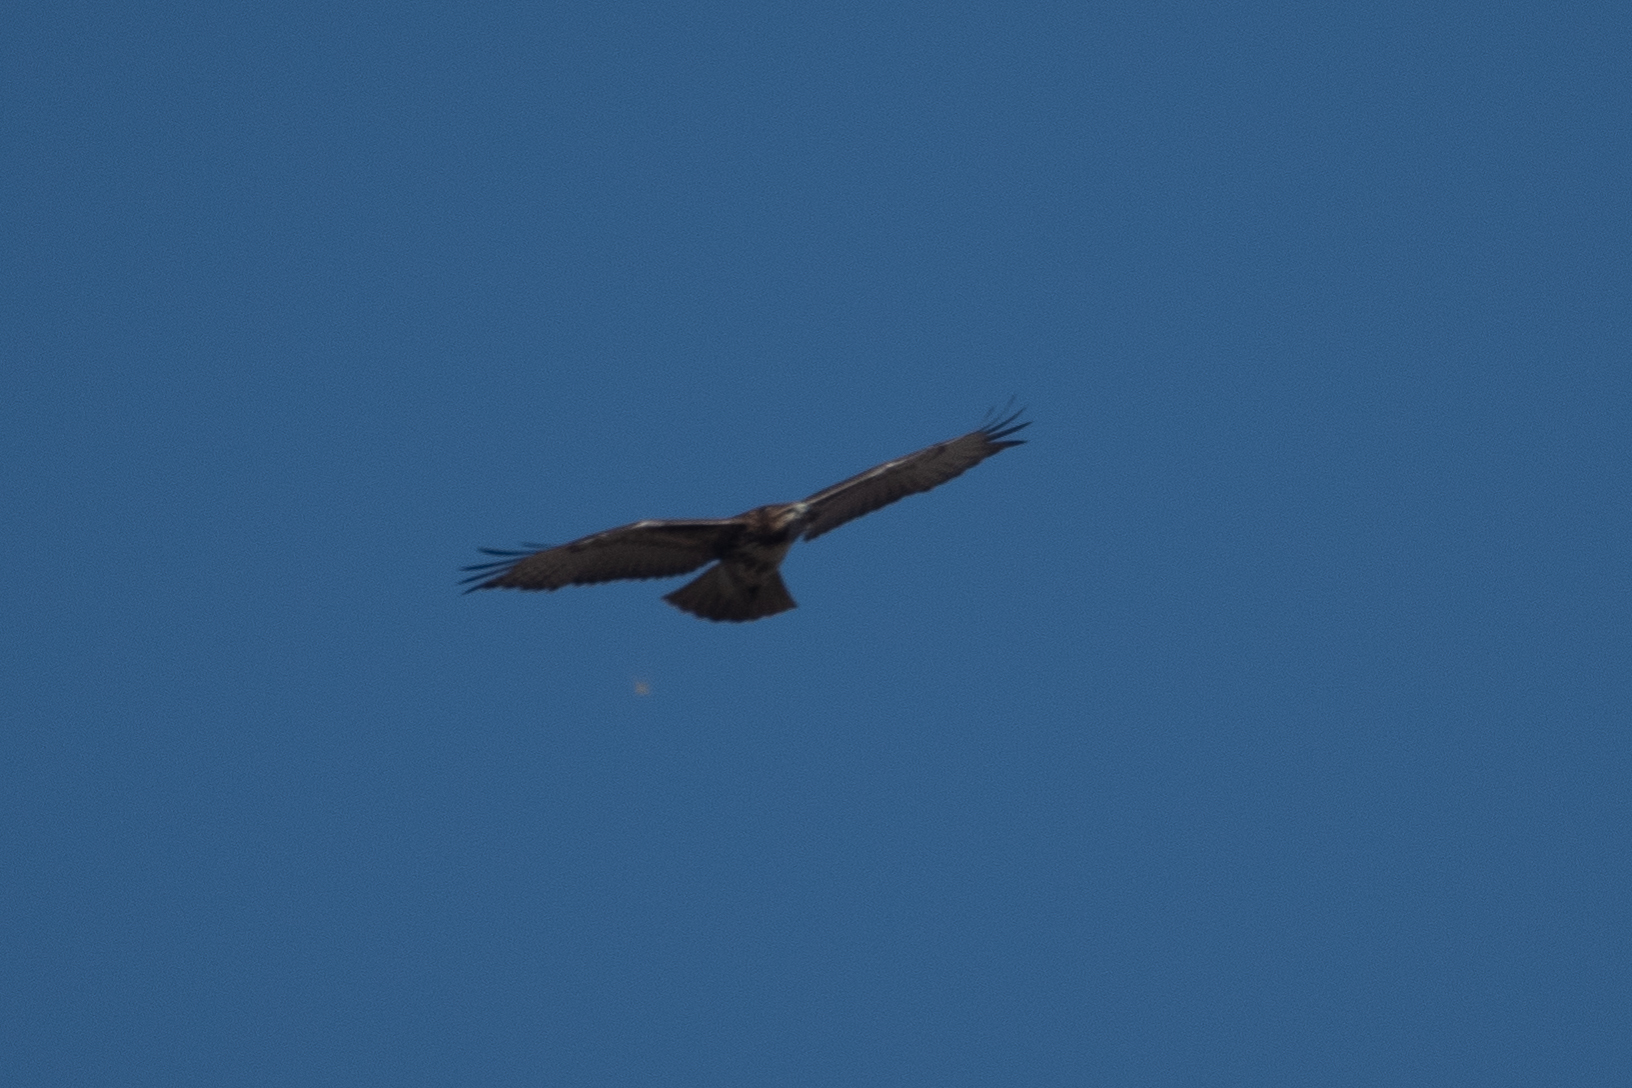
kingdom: Animalia
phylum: Chordata
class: Aves
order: Accipitriformes
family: Accipitridae
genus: Buteo
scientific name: Buteo jamaicensis
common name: Red-tailed hawk
